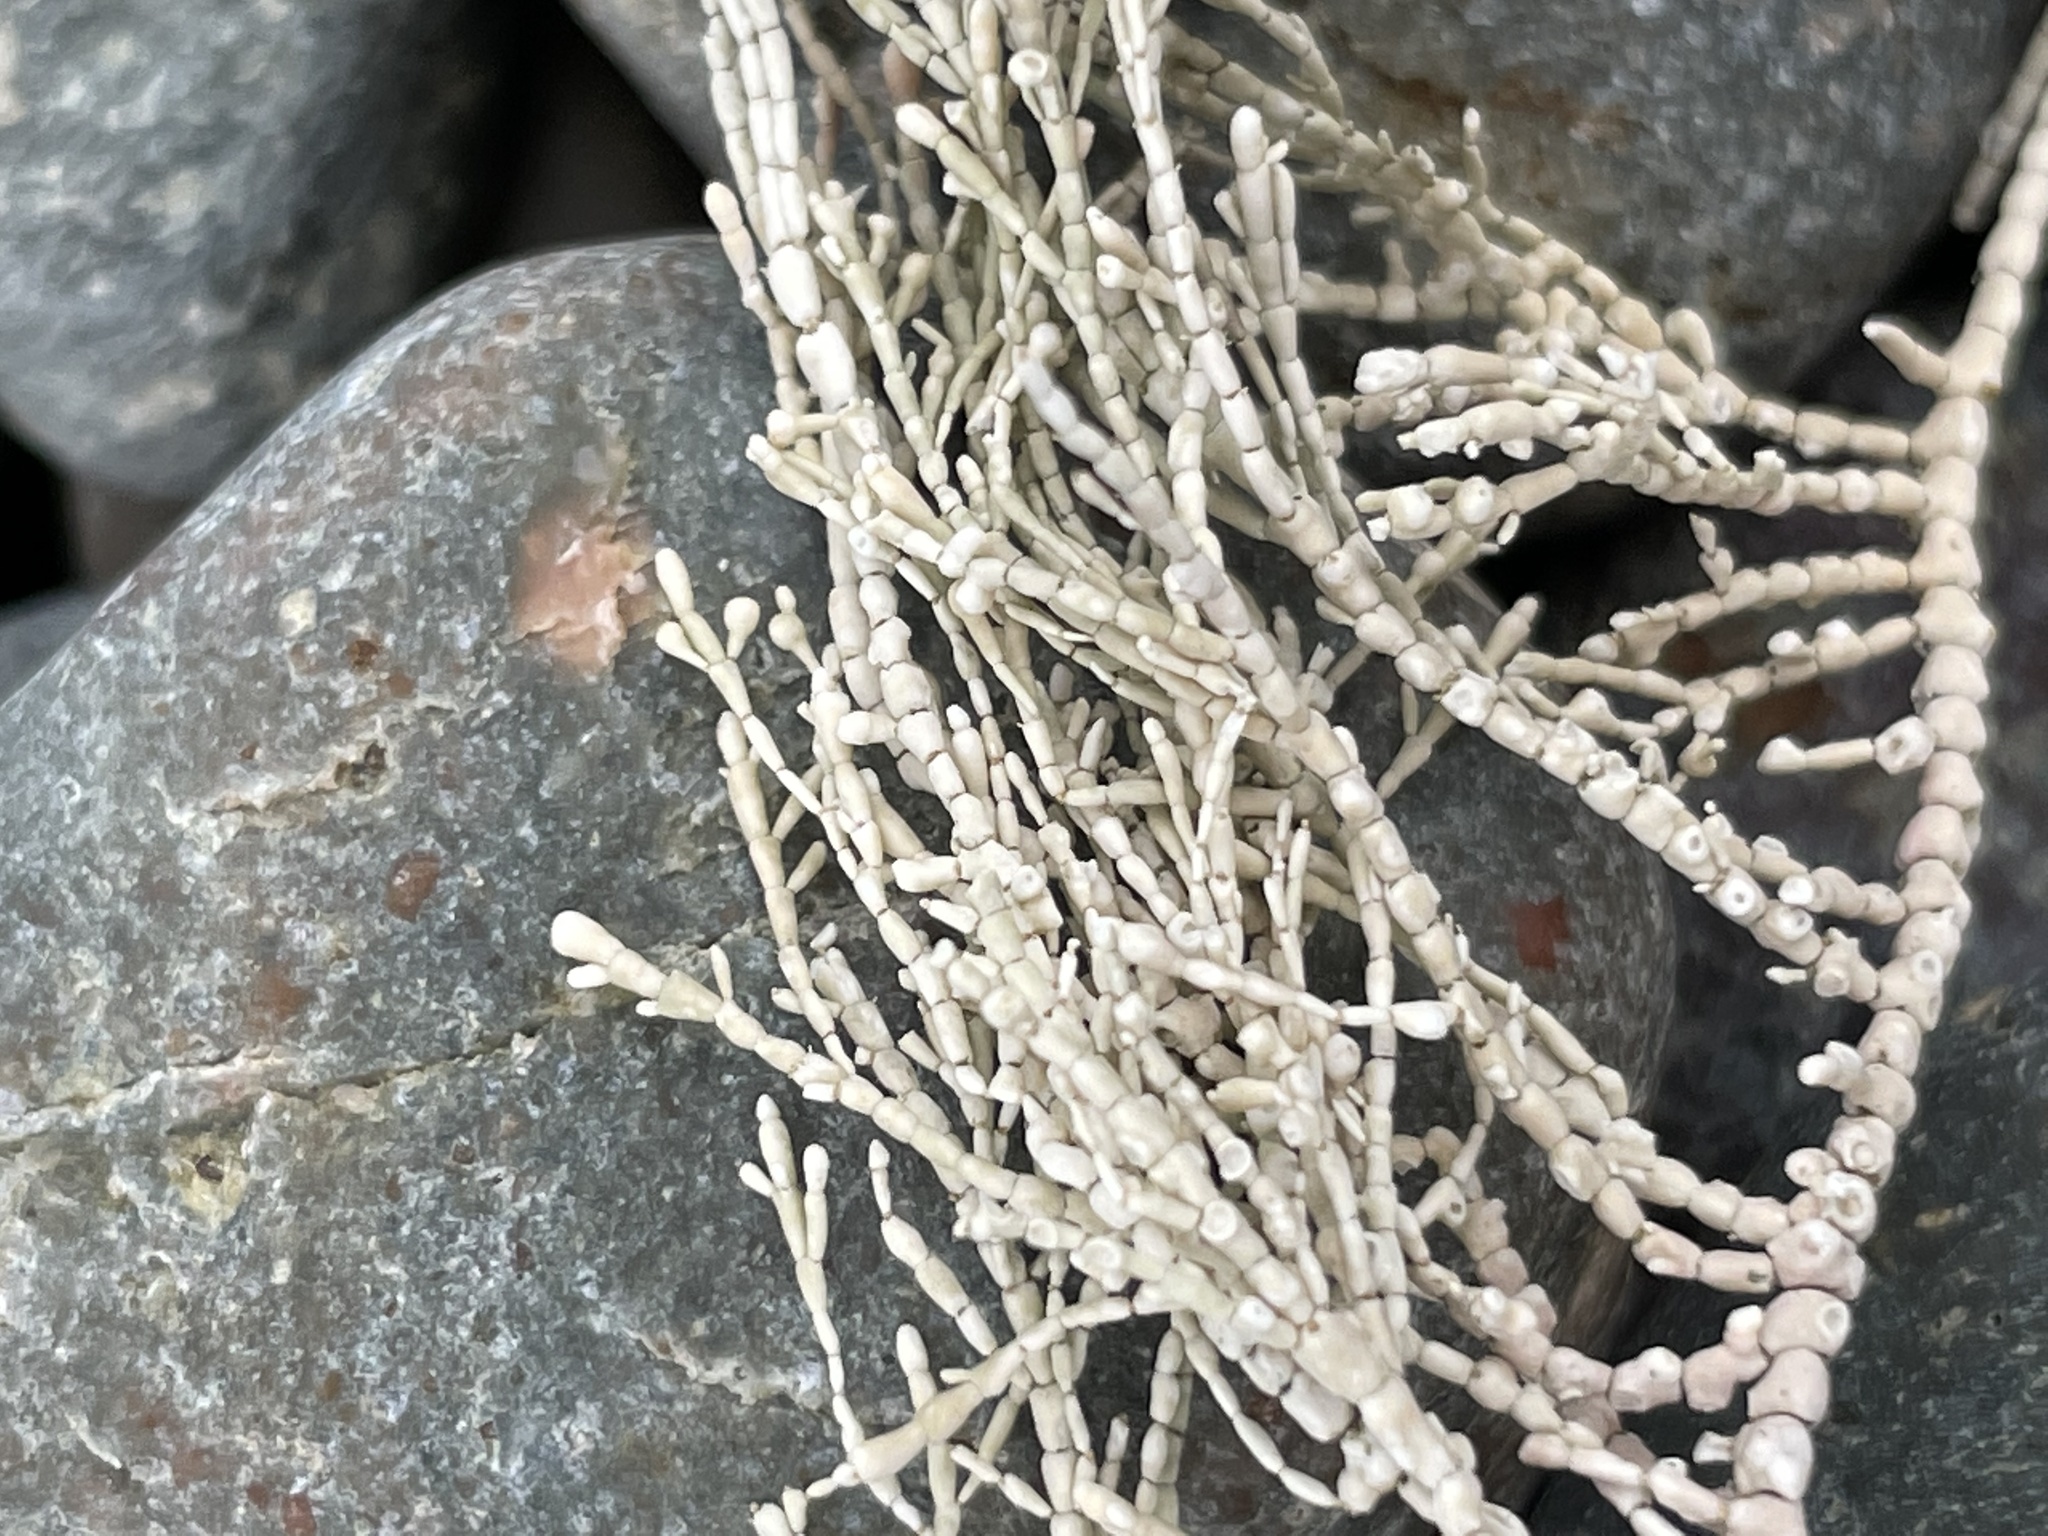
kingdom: Plantae
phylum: Rhodophyta
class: Florideophyceae
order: Corallinales
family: Corallinaceae
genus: Corallina
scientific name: Corallina officinalis
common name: Coral weed
